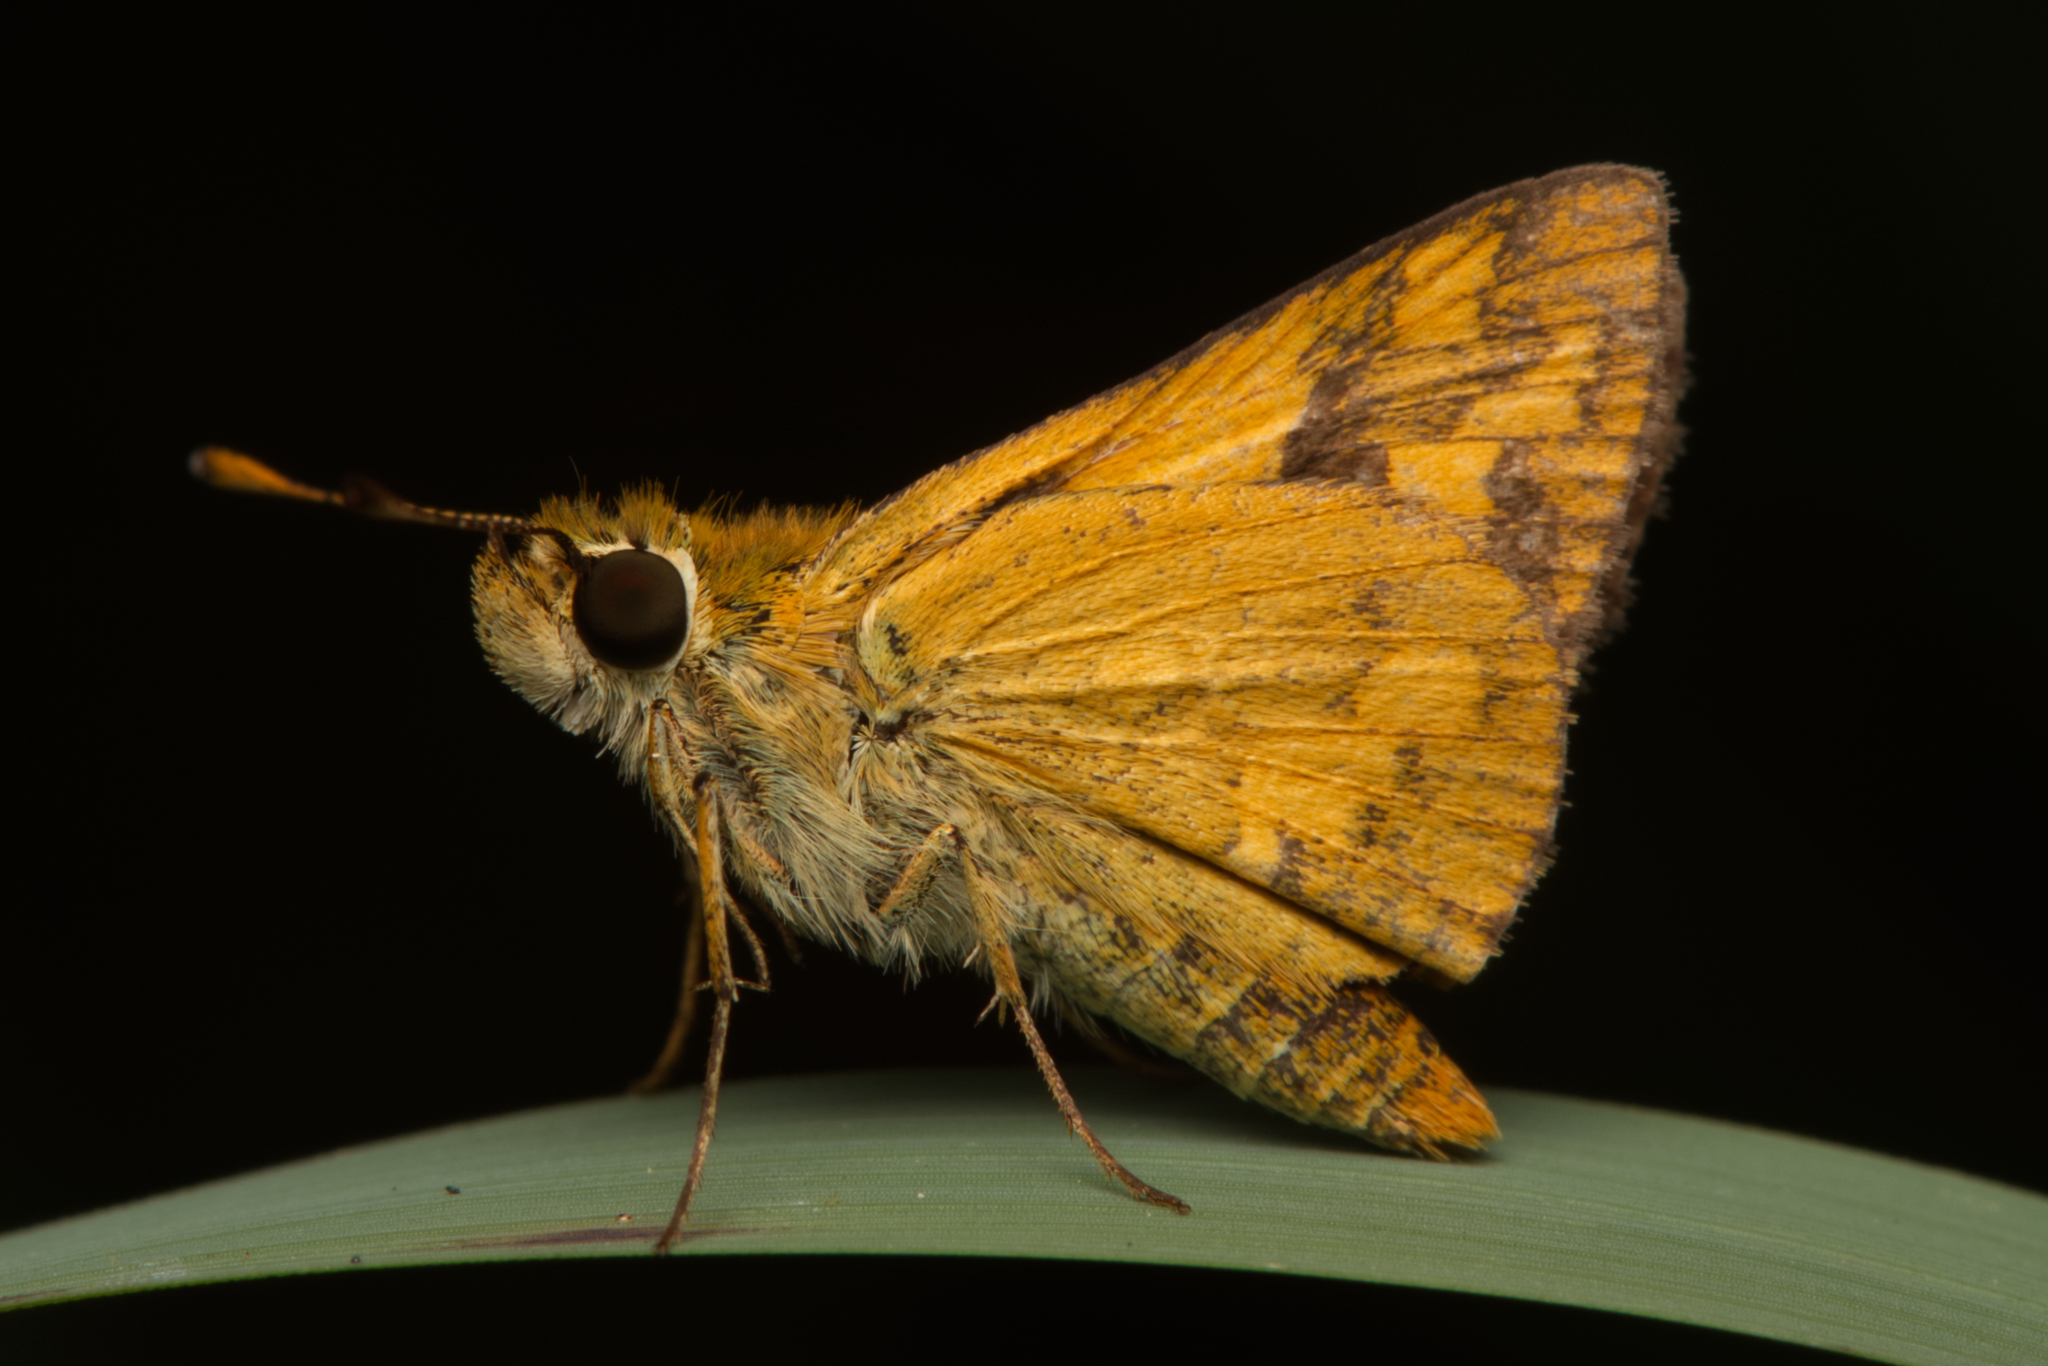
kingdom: Animalia
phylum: Arthropoda
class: Insecta
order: Lepidoptera
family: Hesperiidae
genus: Ocybadistes
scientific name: Ocybadistes walkeri
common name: Yellow-banded dart
